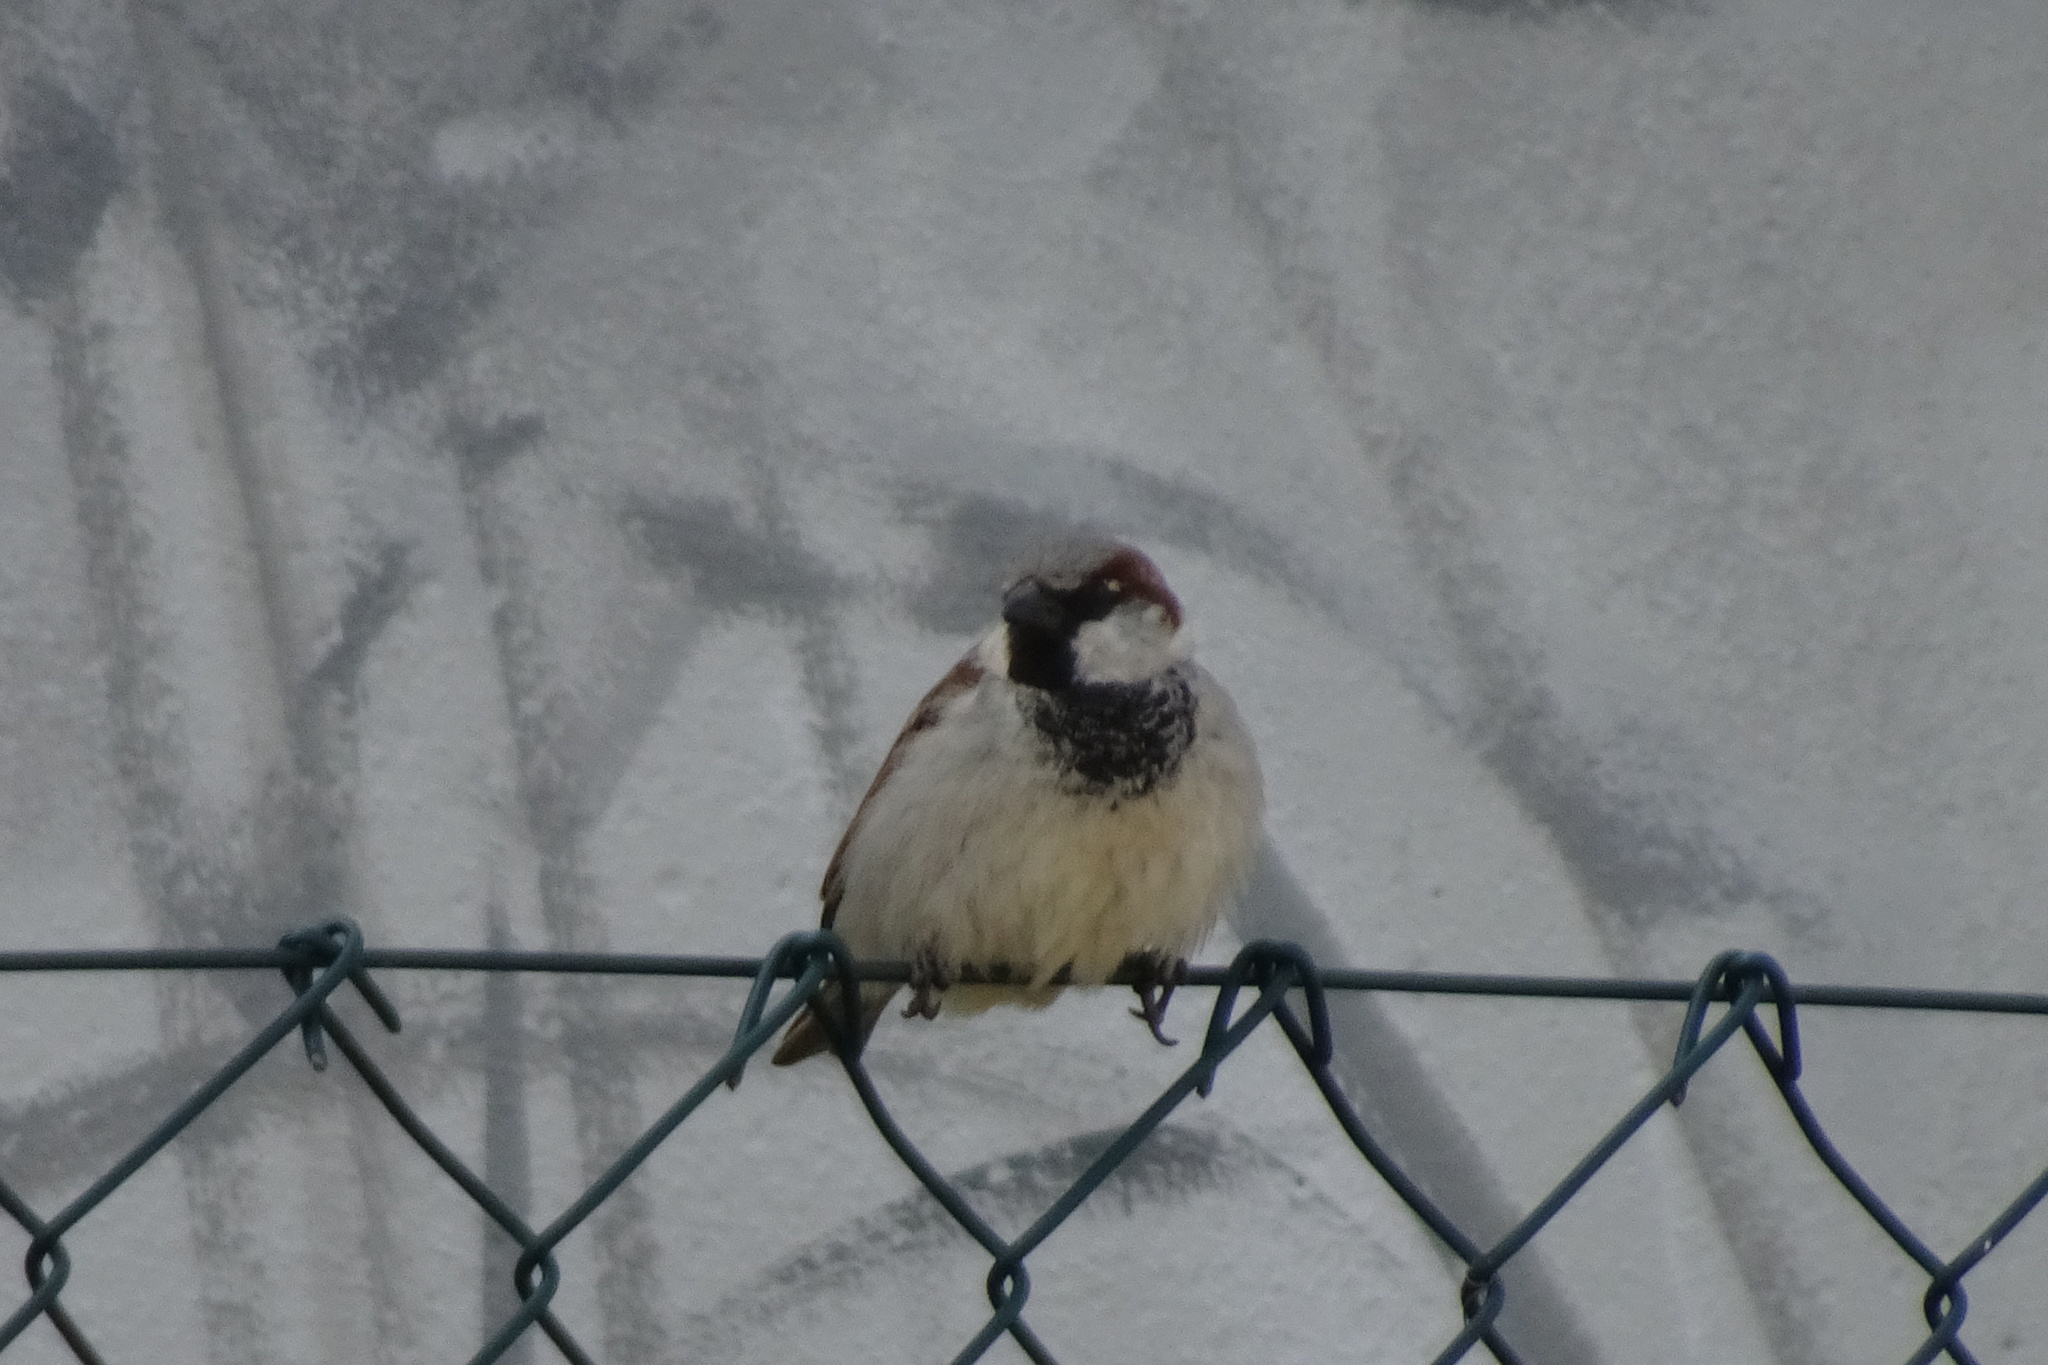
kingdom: Animalia
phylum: Chordata
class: Aves
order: Passeriformes
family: Passeridae
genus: Passer
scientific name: Passer domesticus
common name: House sparrow
